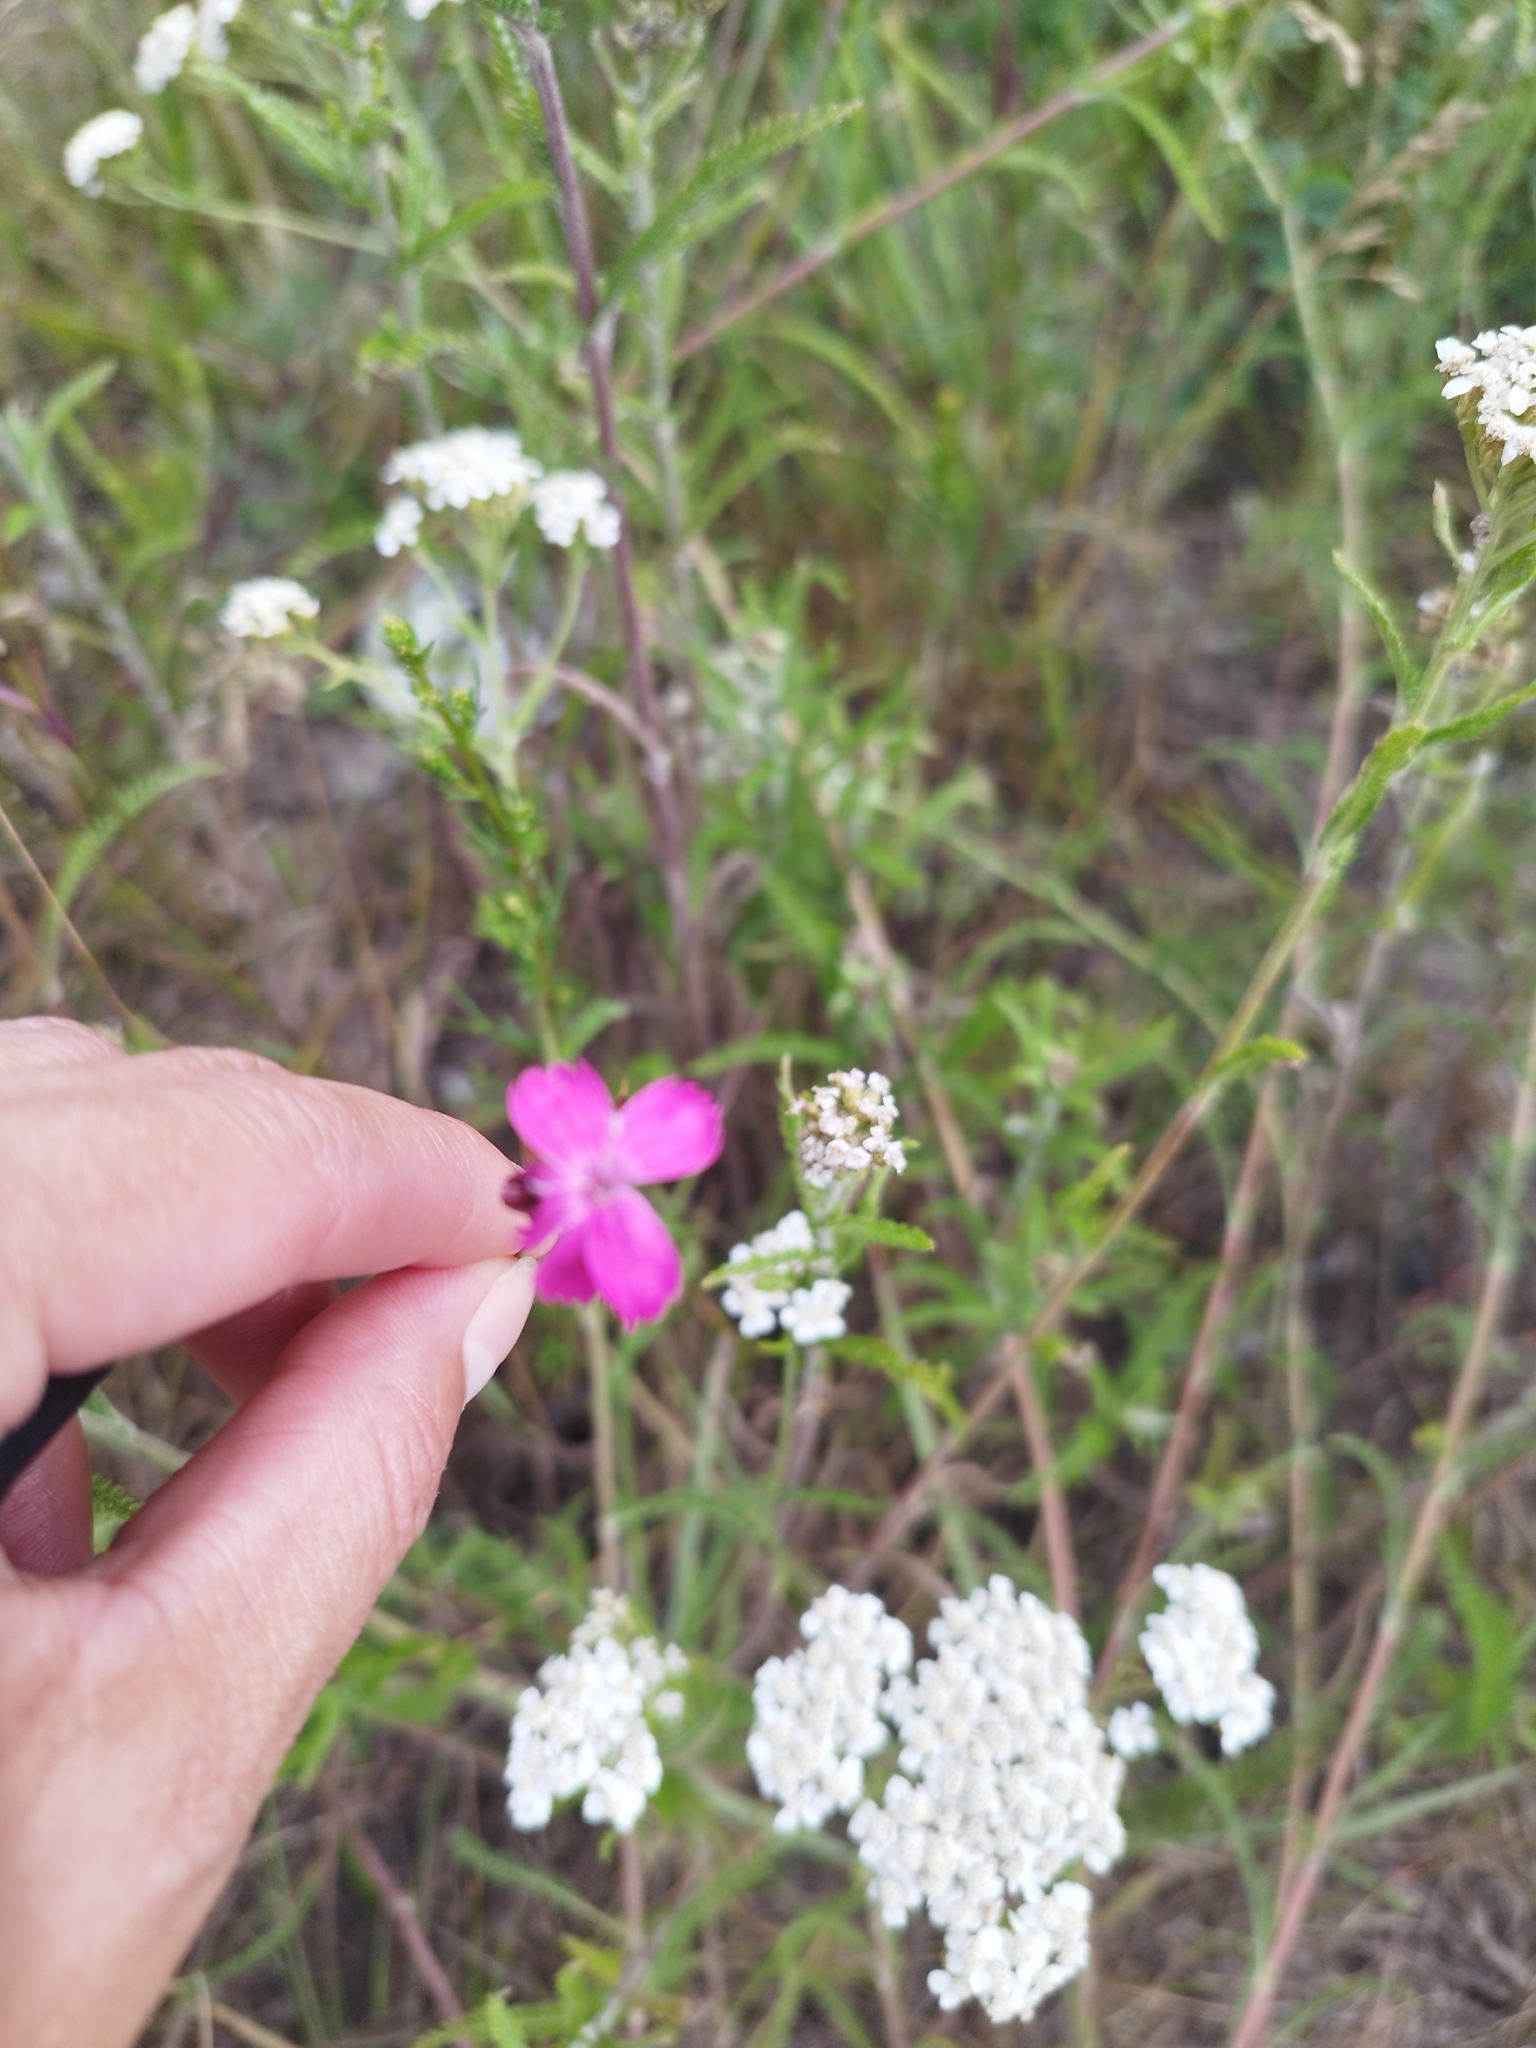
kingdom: Plantae
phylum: Tracheophyta
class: Magnoliopsida
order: Caryophyllales
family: Caryophyllaceae
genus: Dianthus
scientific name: Dianthus borbasii
